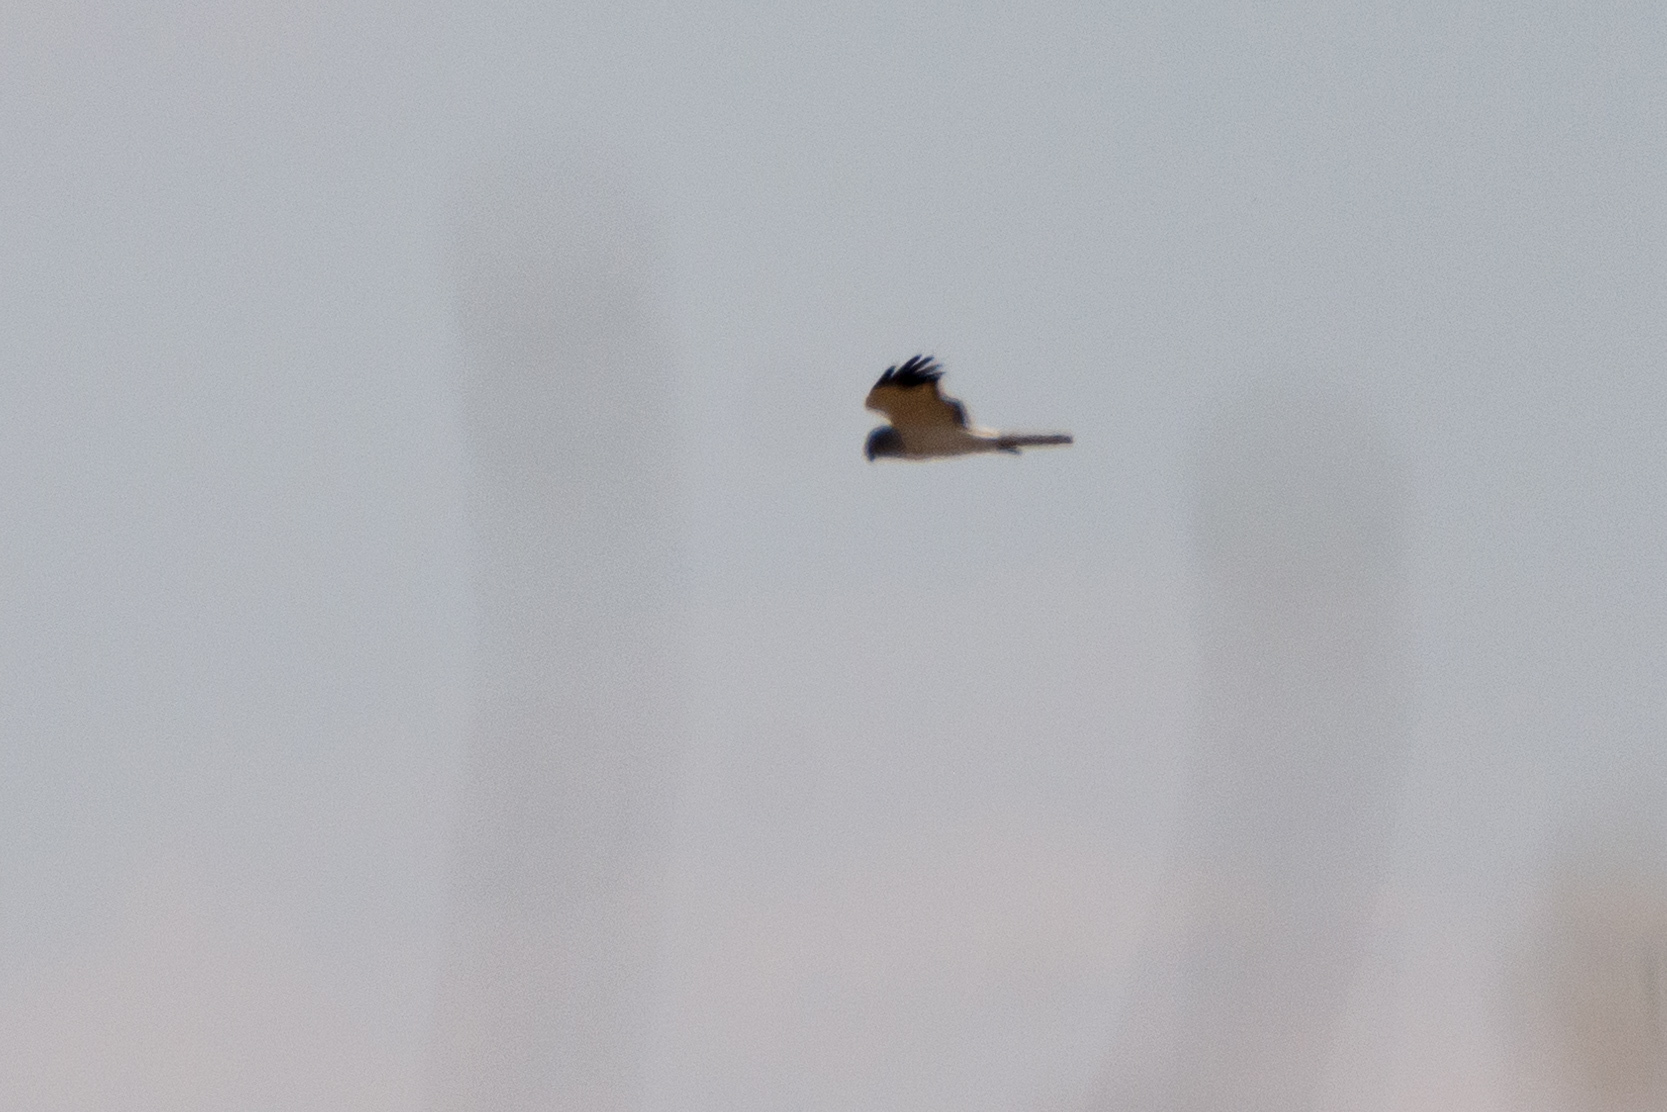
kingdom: Animalia
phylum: Chordata
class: Aves
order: Accipitriformes
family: Accipitridae
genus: Circus
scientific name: Circus cyaneus
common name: Hen harrier
